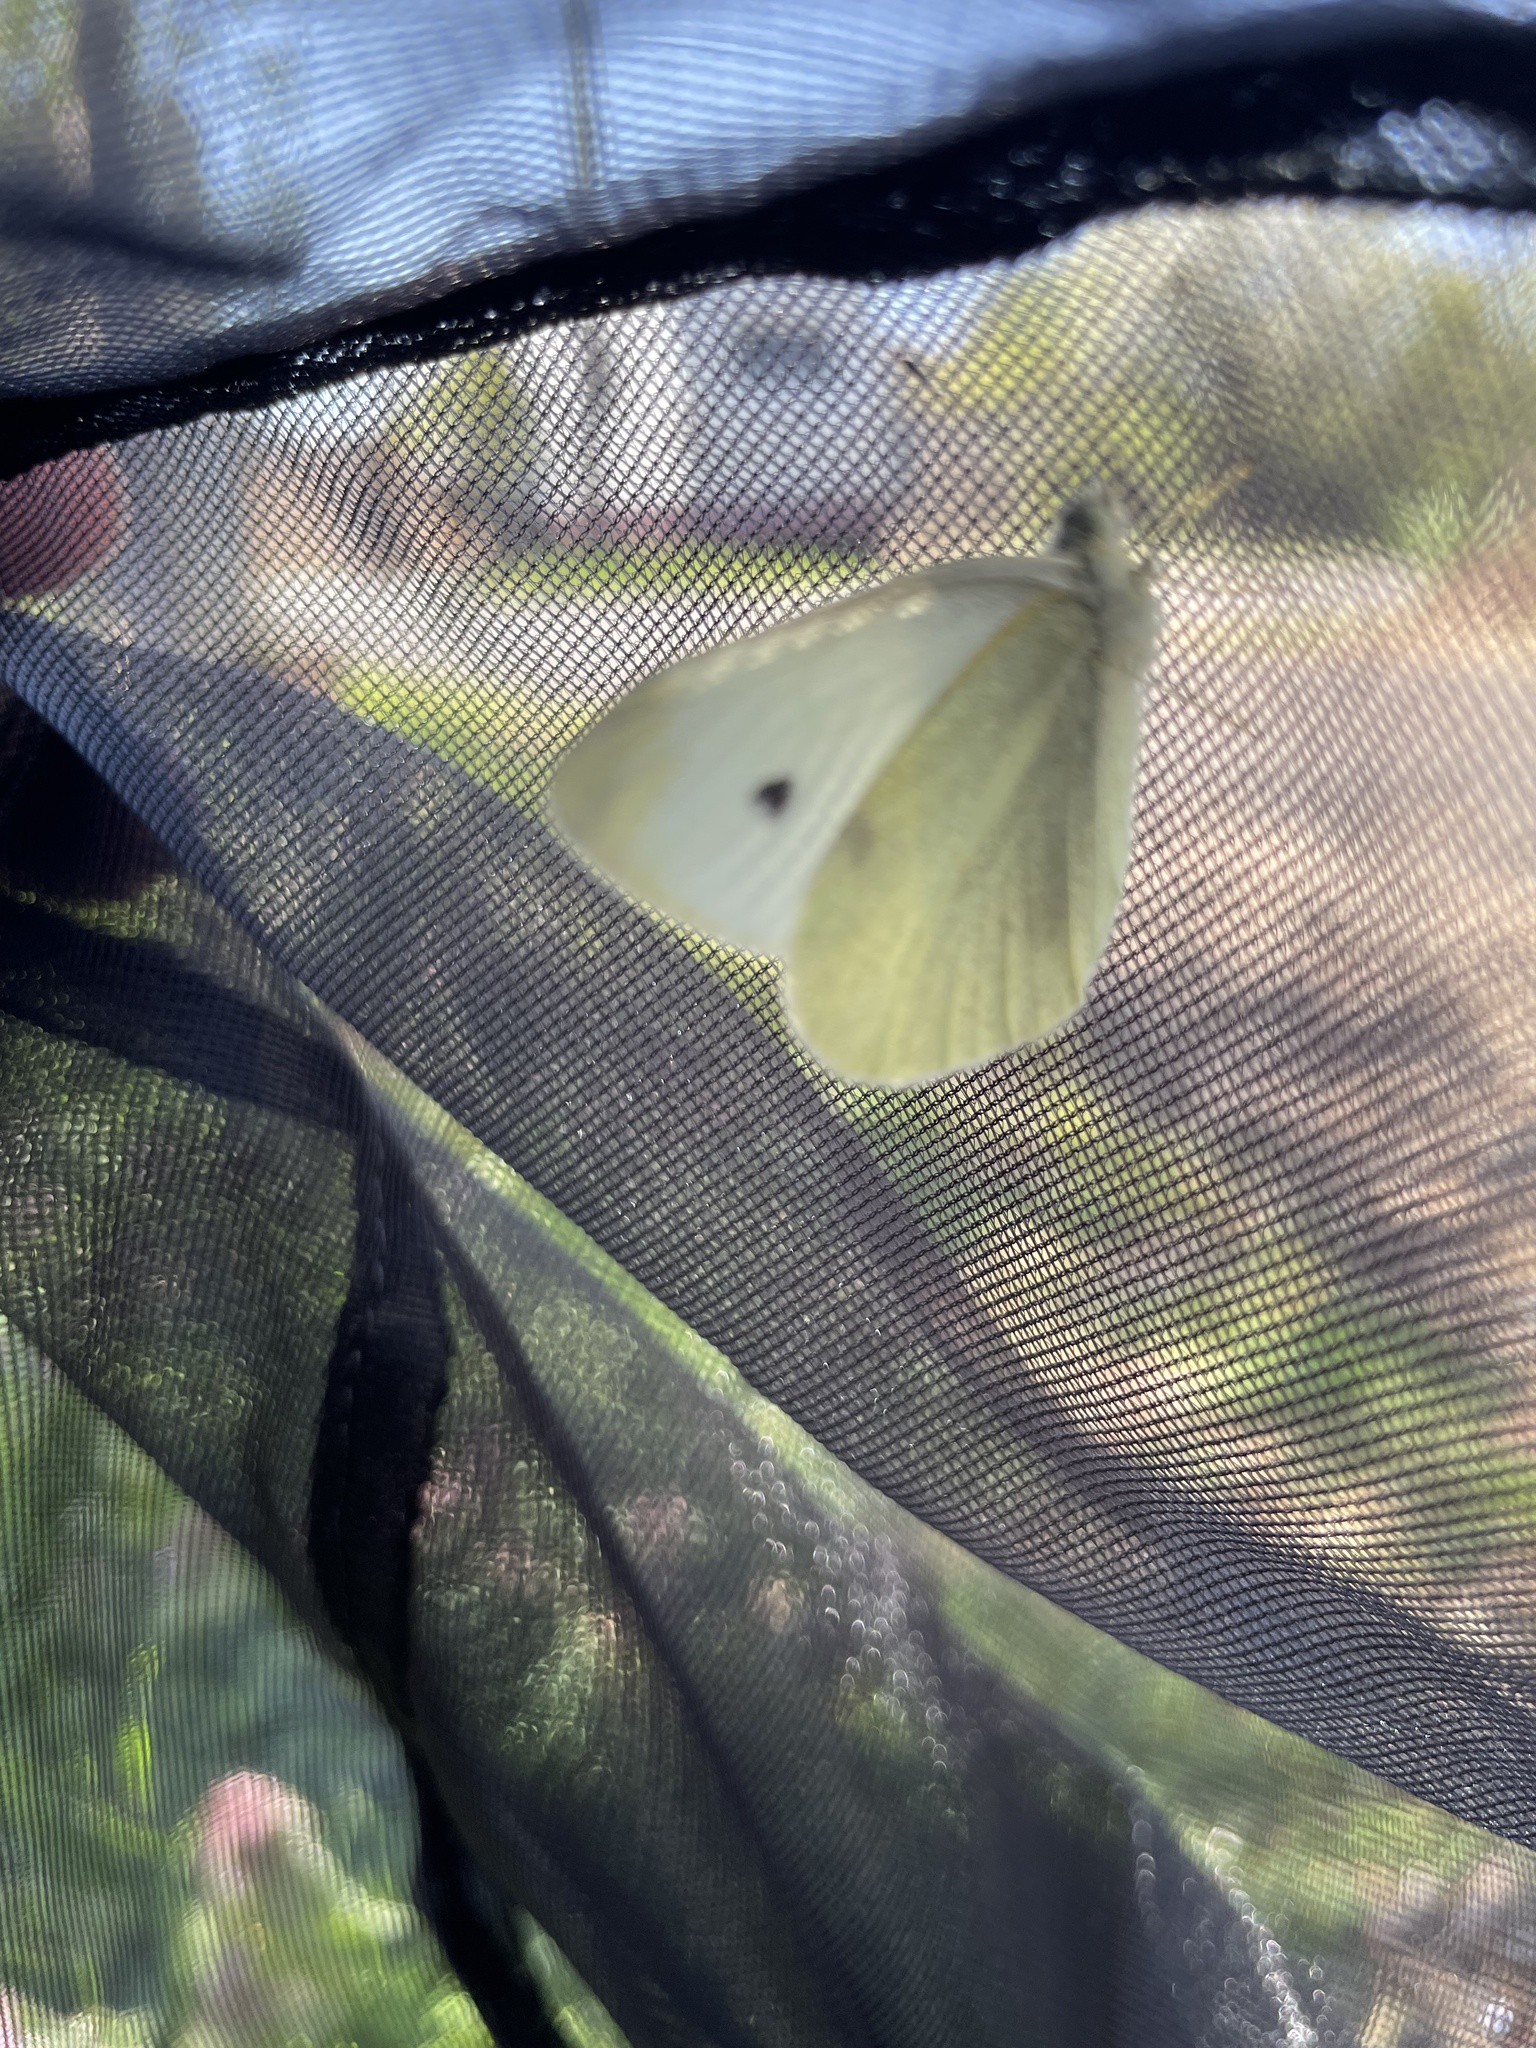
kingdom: Animalia
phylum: Arthropoda
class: Insecta
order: Lepidoptera
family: Pieridae
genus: Pieris
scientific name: Pieris rapae
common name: Small white
